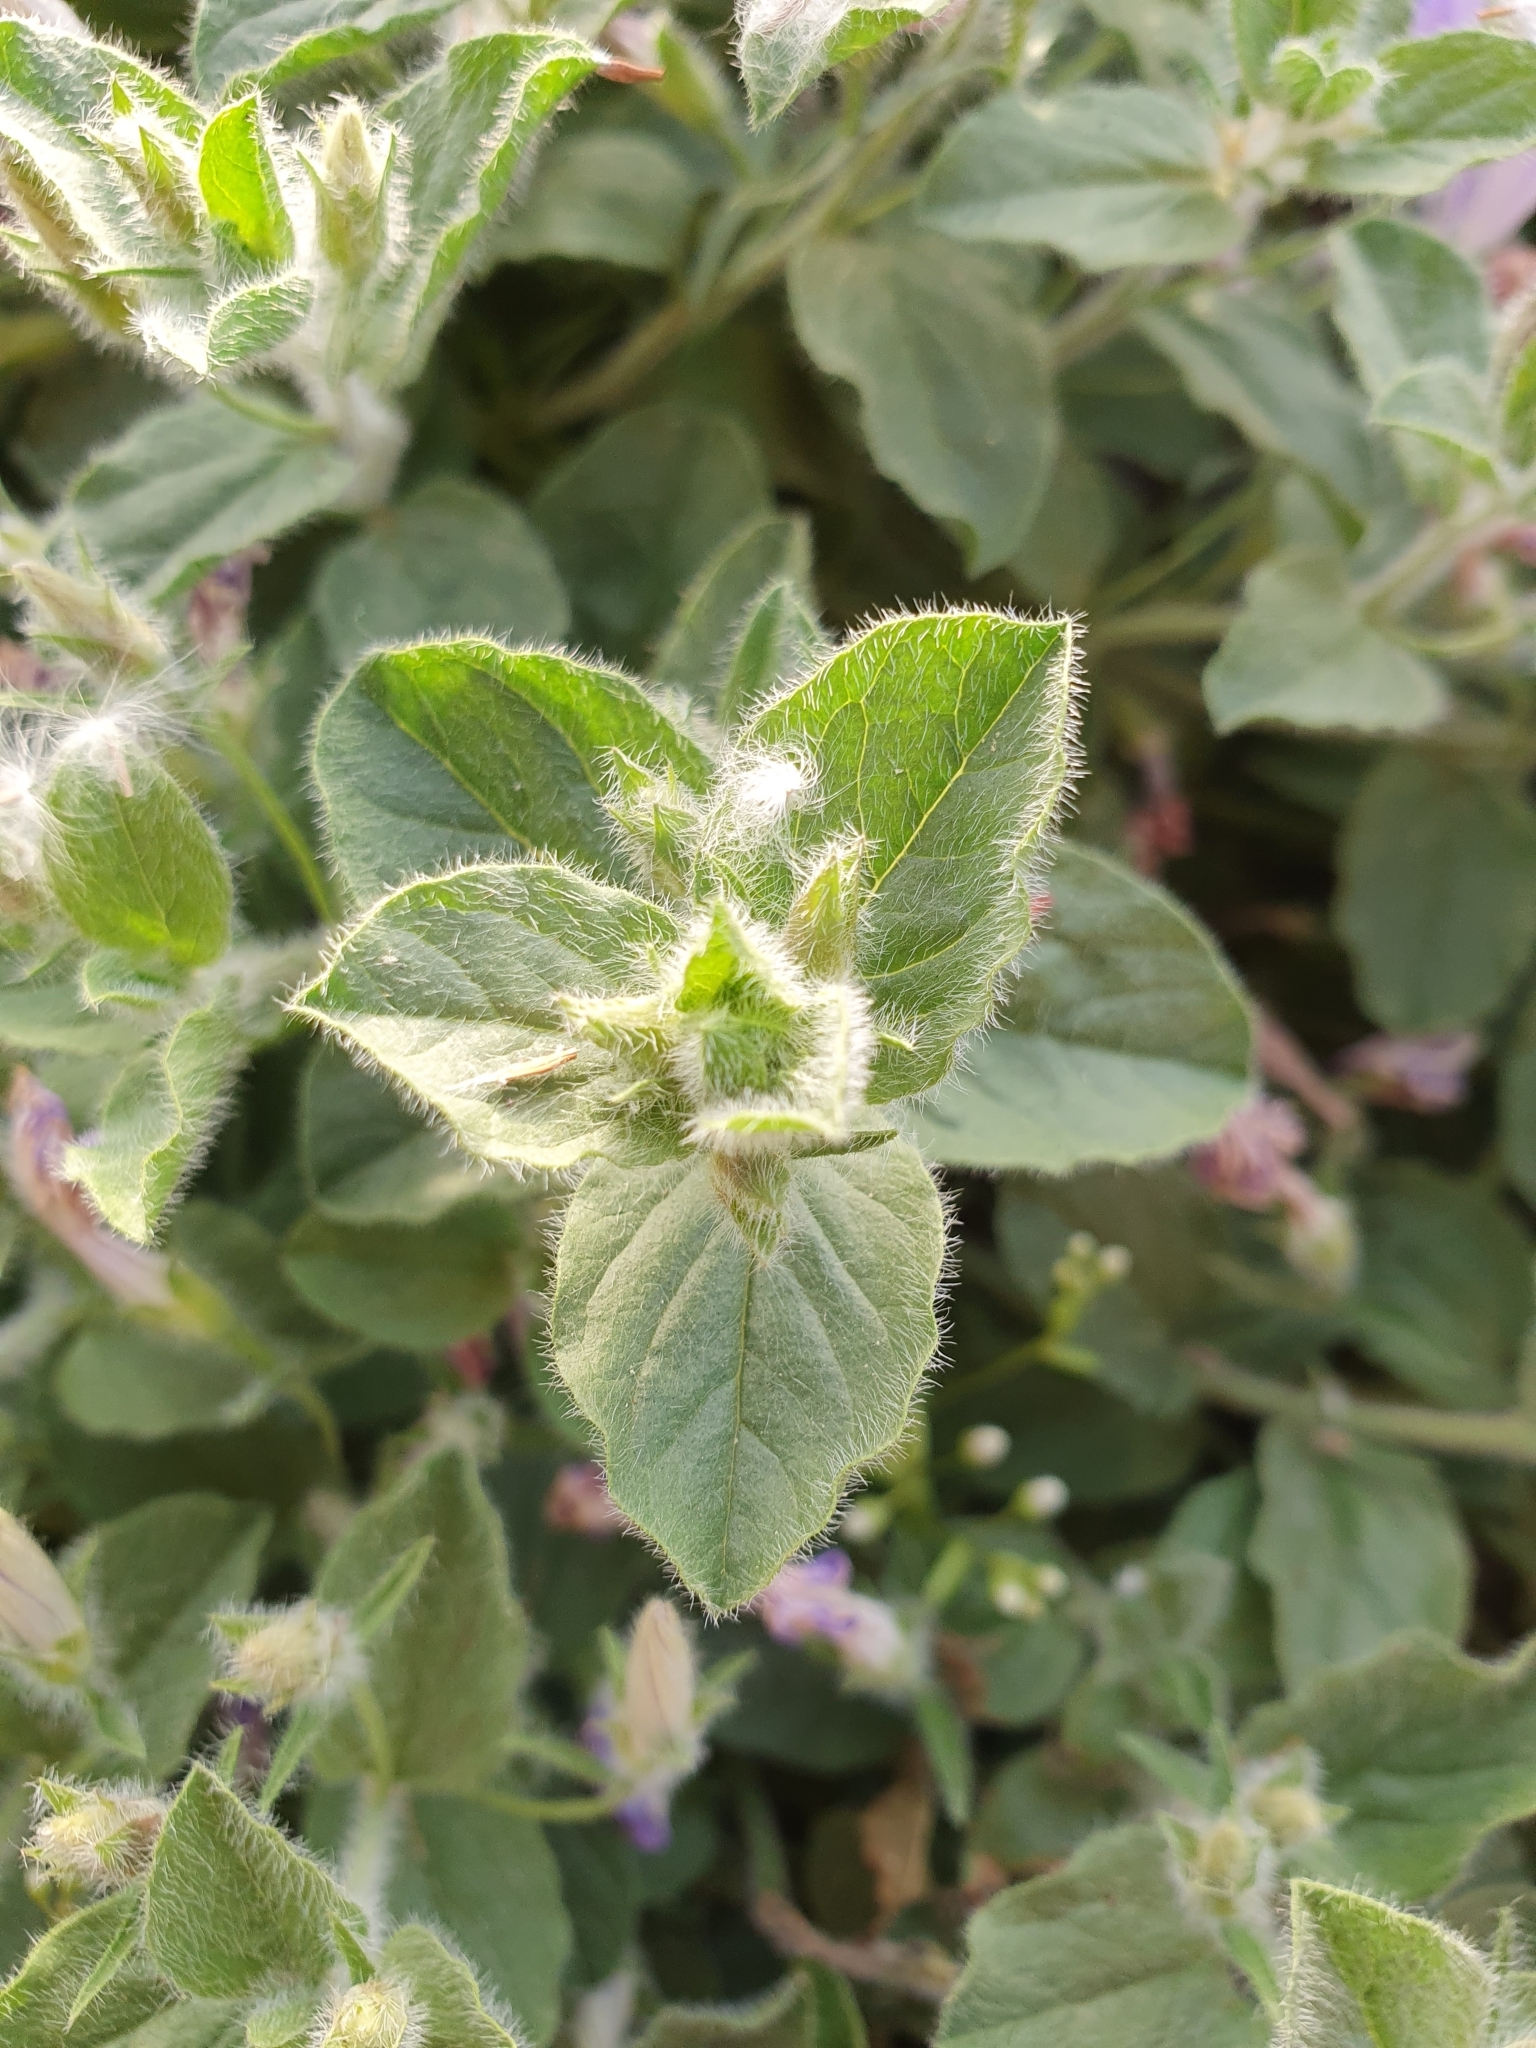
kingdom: Plantae
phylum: Tracheophyta
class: Magnoliopsida
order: Solanales
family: Convolvulaceae
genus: Convolvulus
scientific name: Convolvulus sabatius
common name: Ground blue-convolvulus
